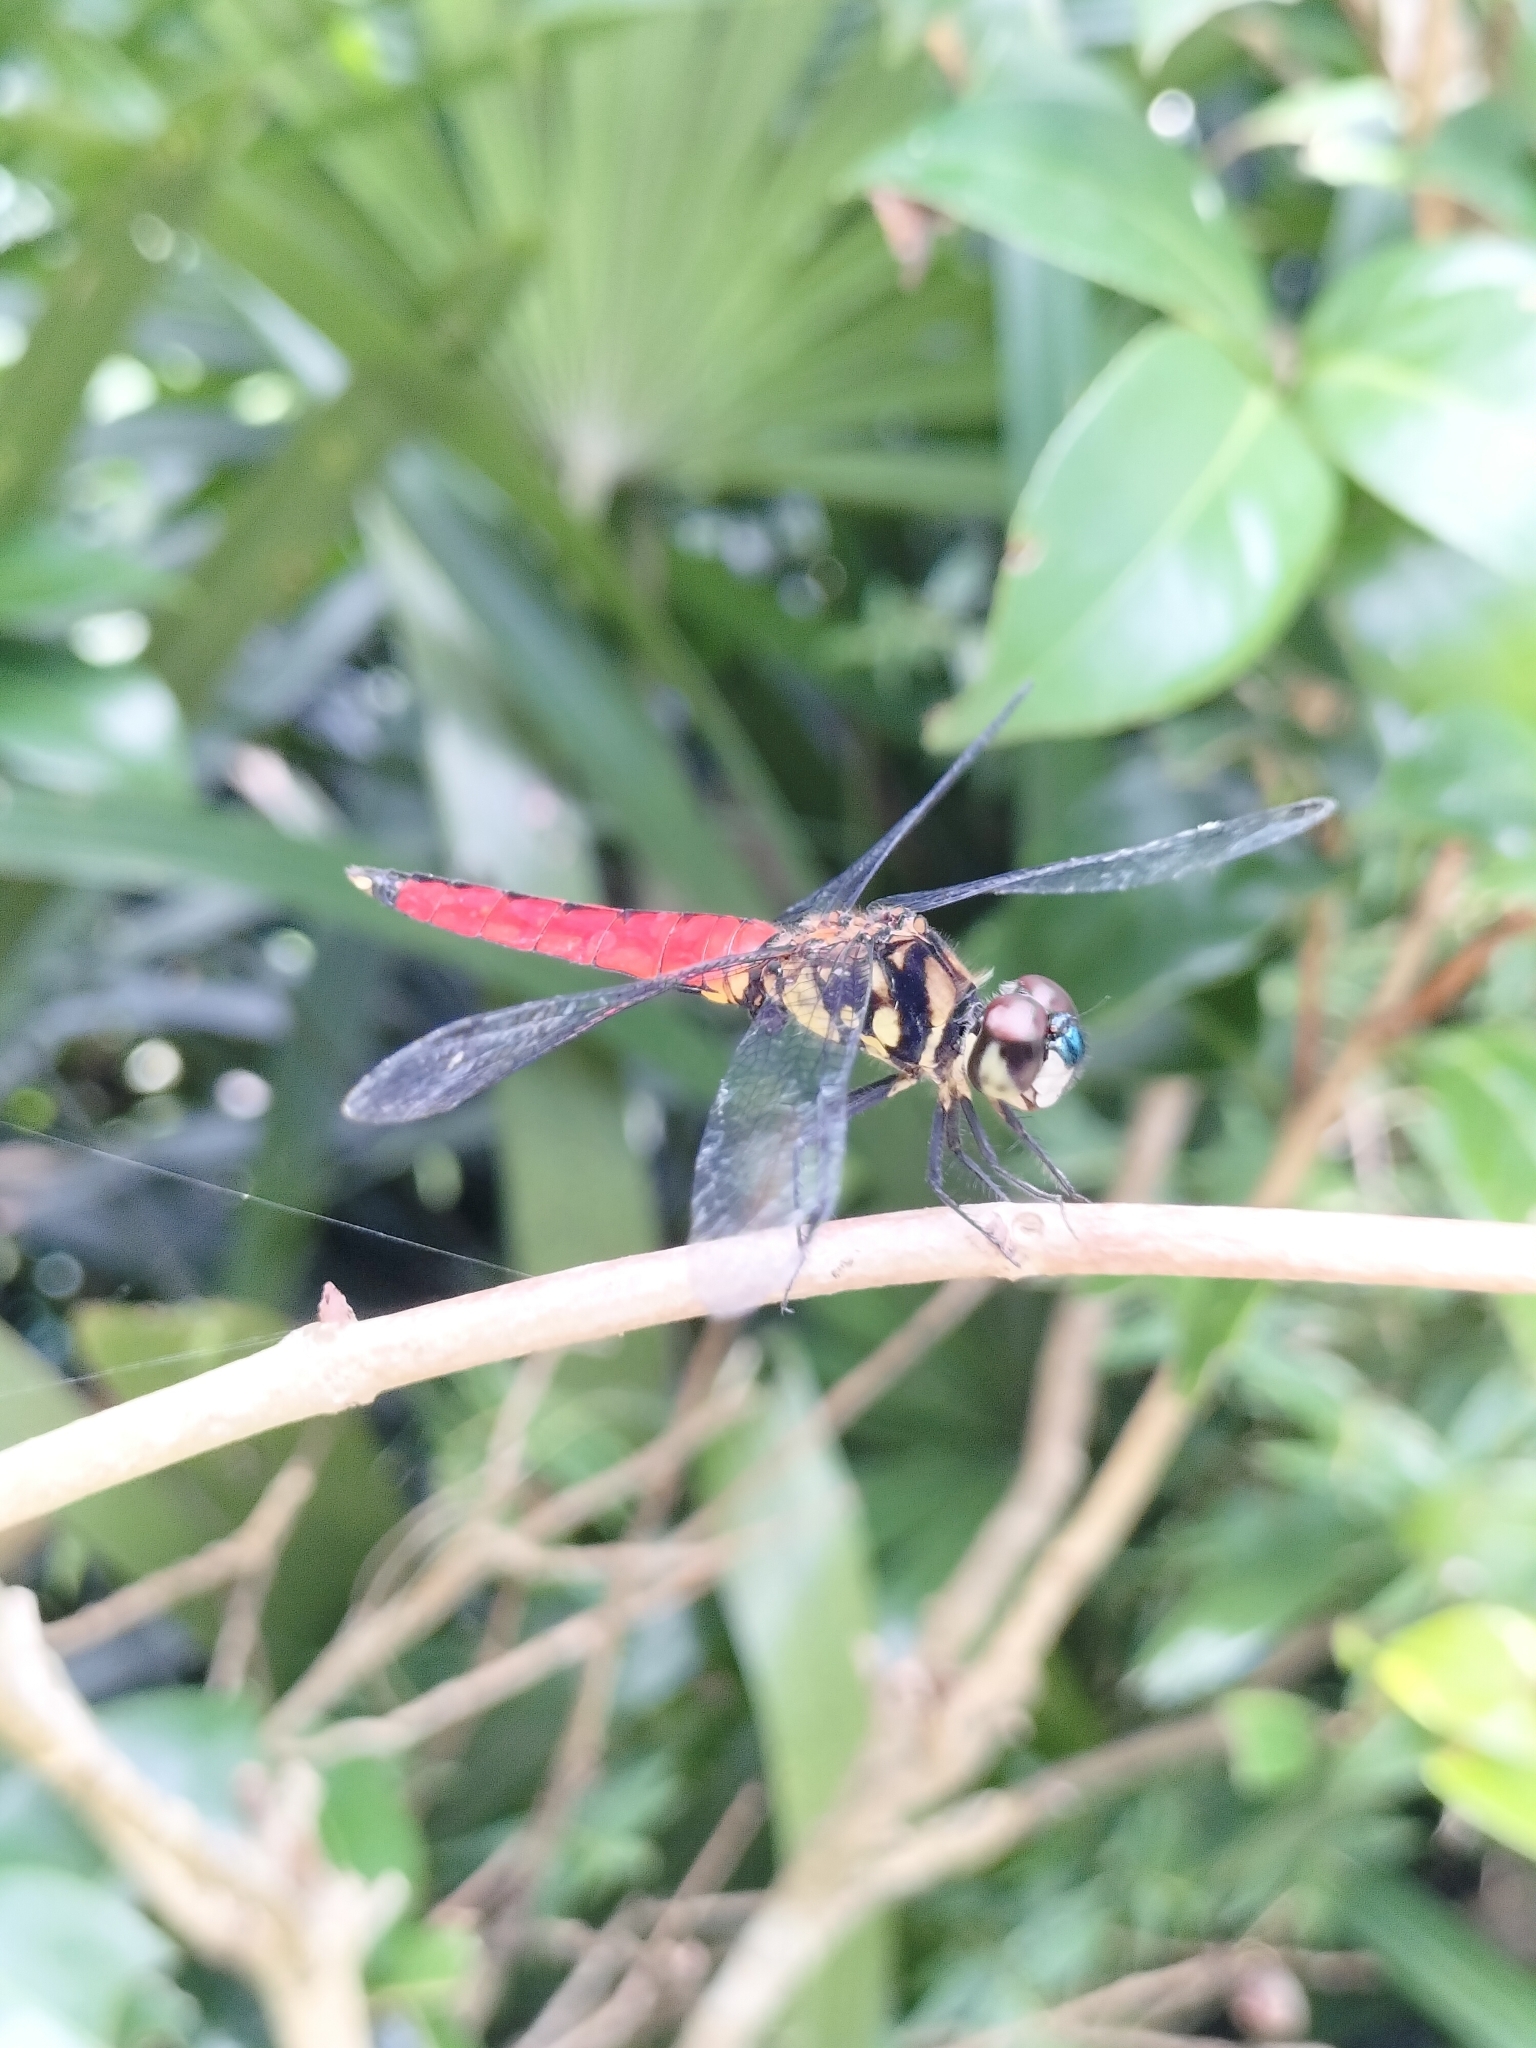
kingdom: Animalia
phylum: Arthropoda
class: Insecta
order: Odonata
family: Libellulidae
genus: Lyriothemis
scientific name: Lyriothemis elegantissima
